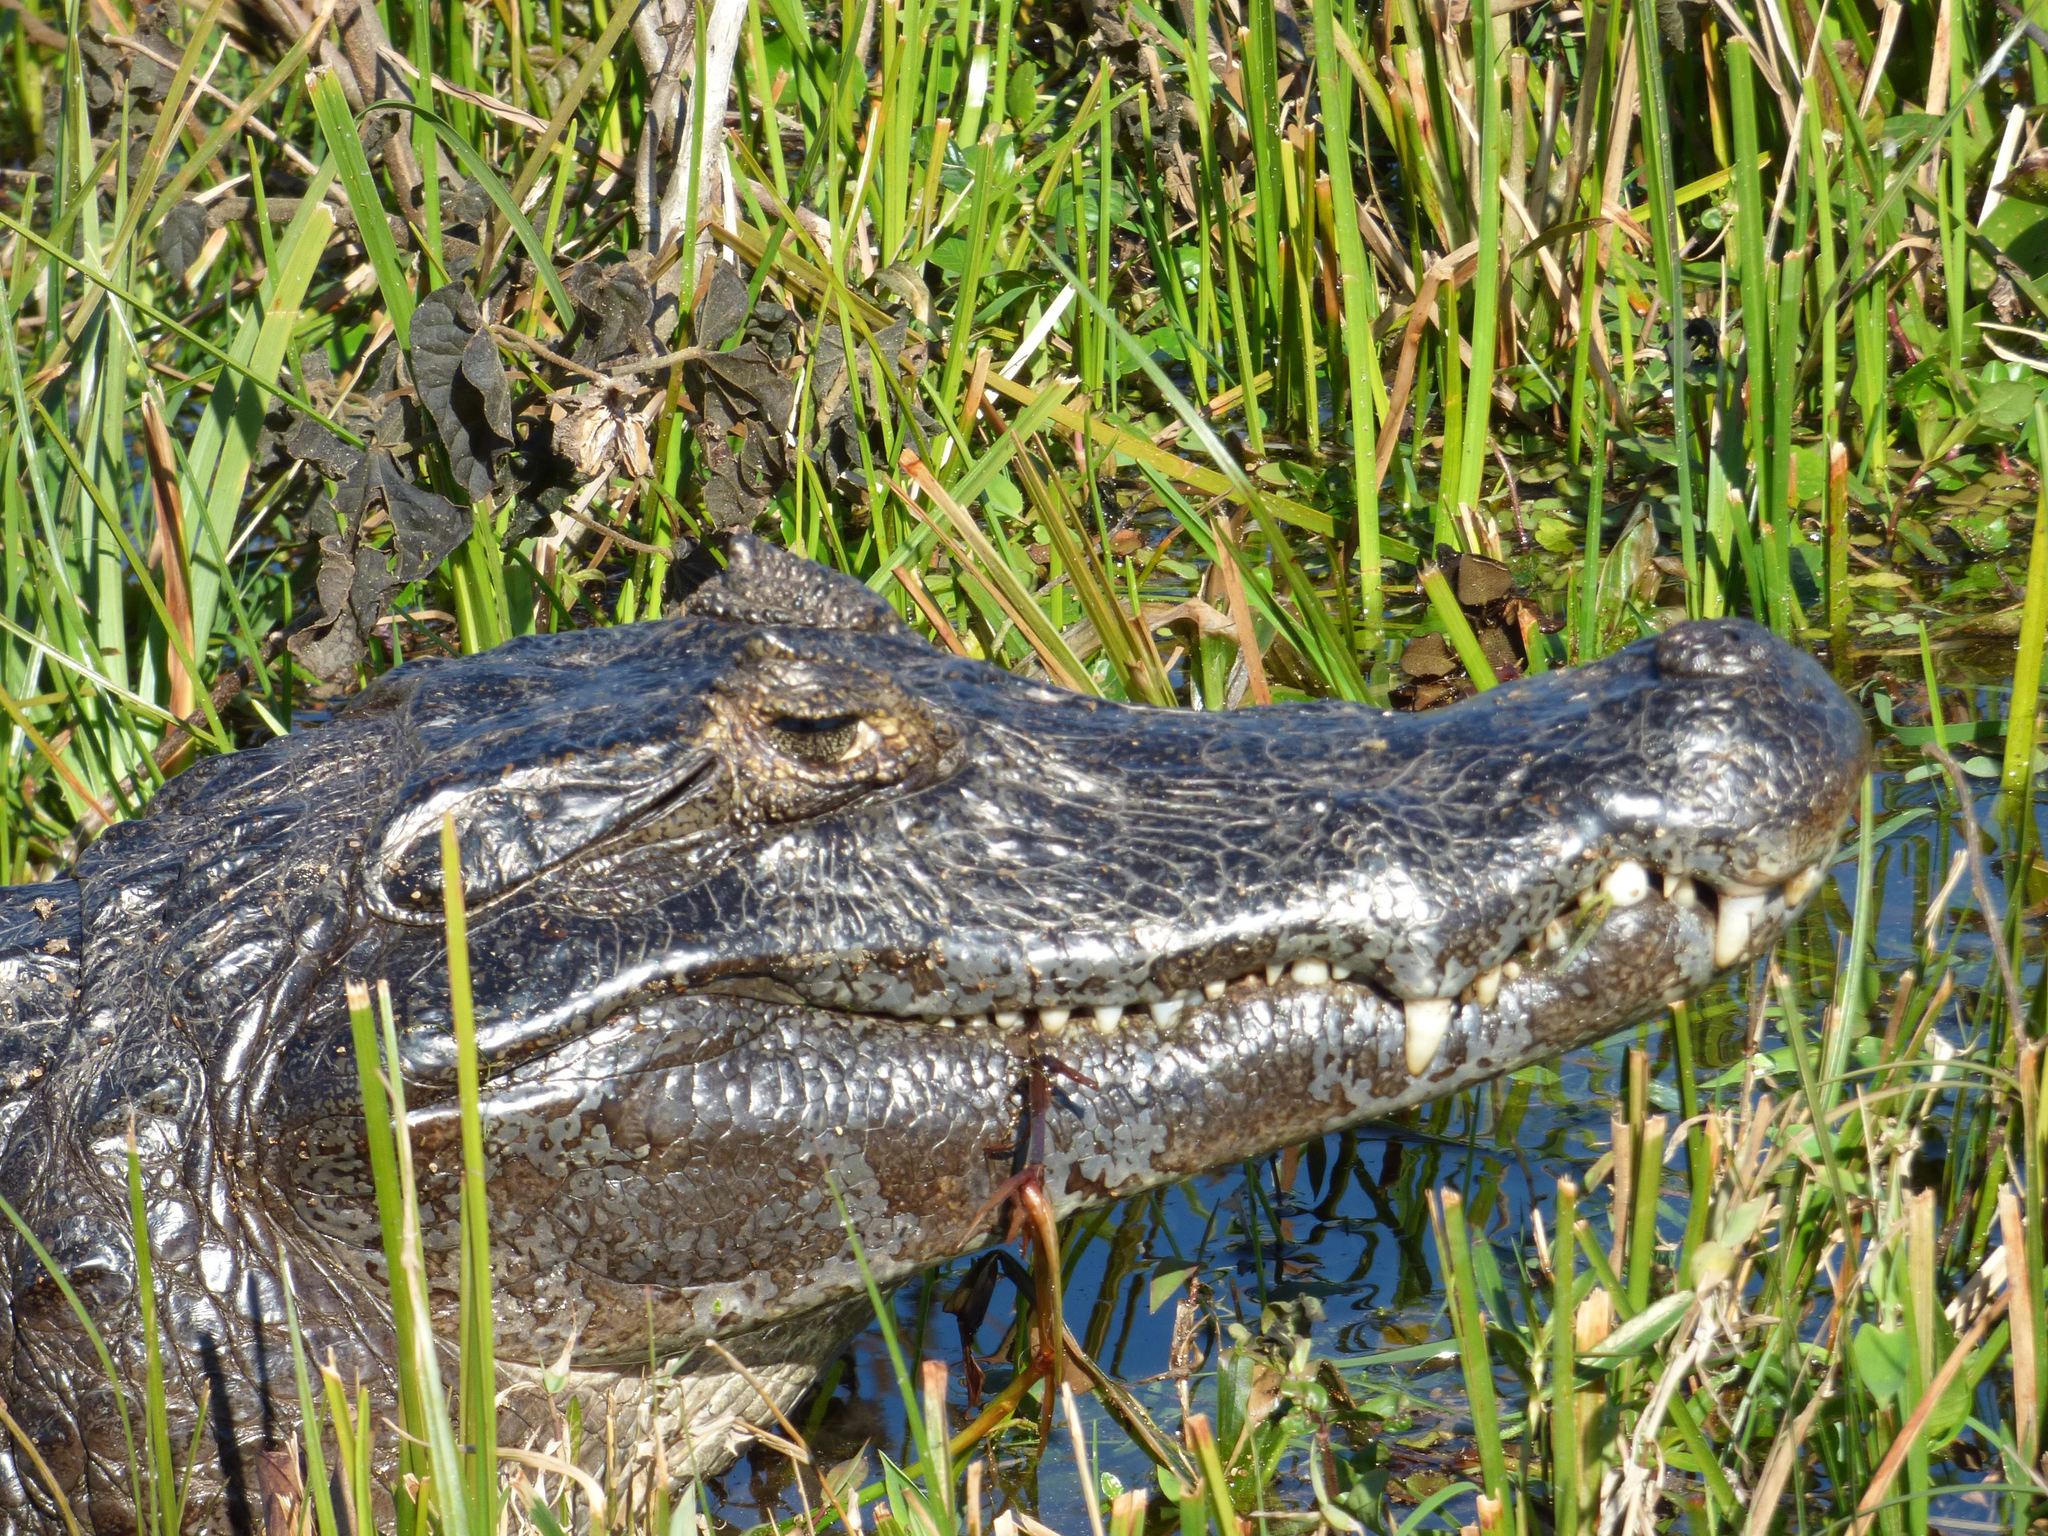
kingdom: Animalia
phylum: Chordata
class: Crocodylia
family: Alligatoridae
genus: Caiman
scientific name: Caiman yacare
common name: Yacare caiman
